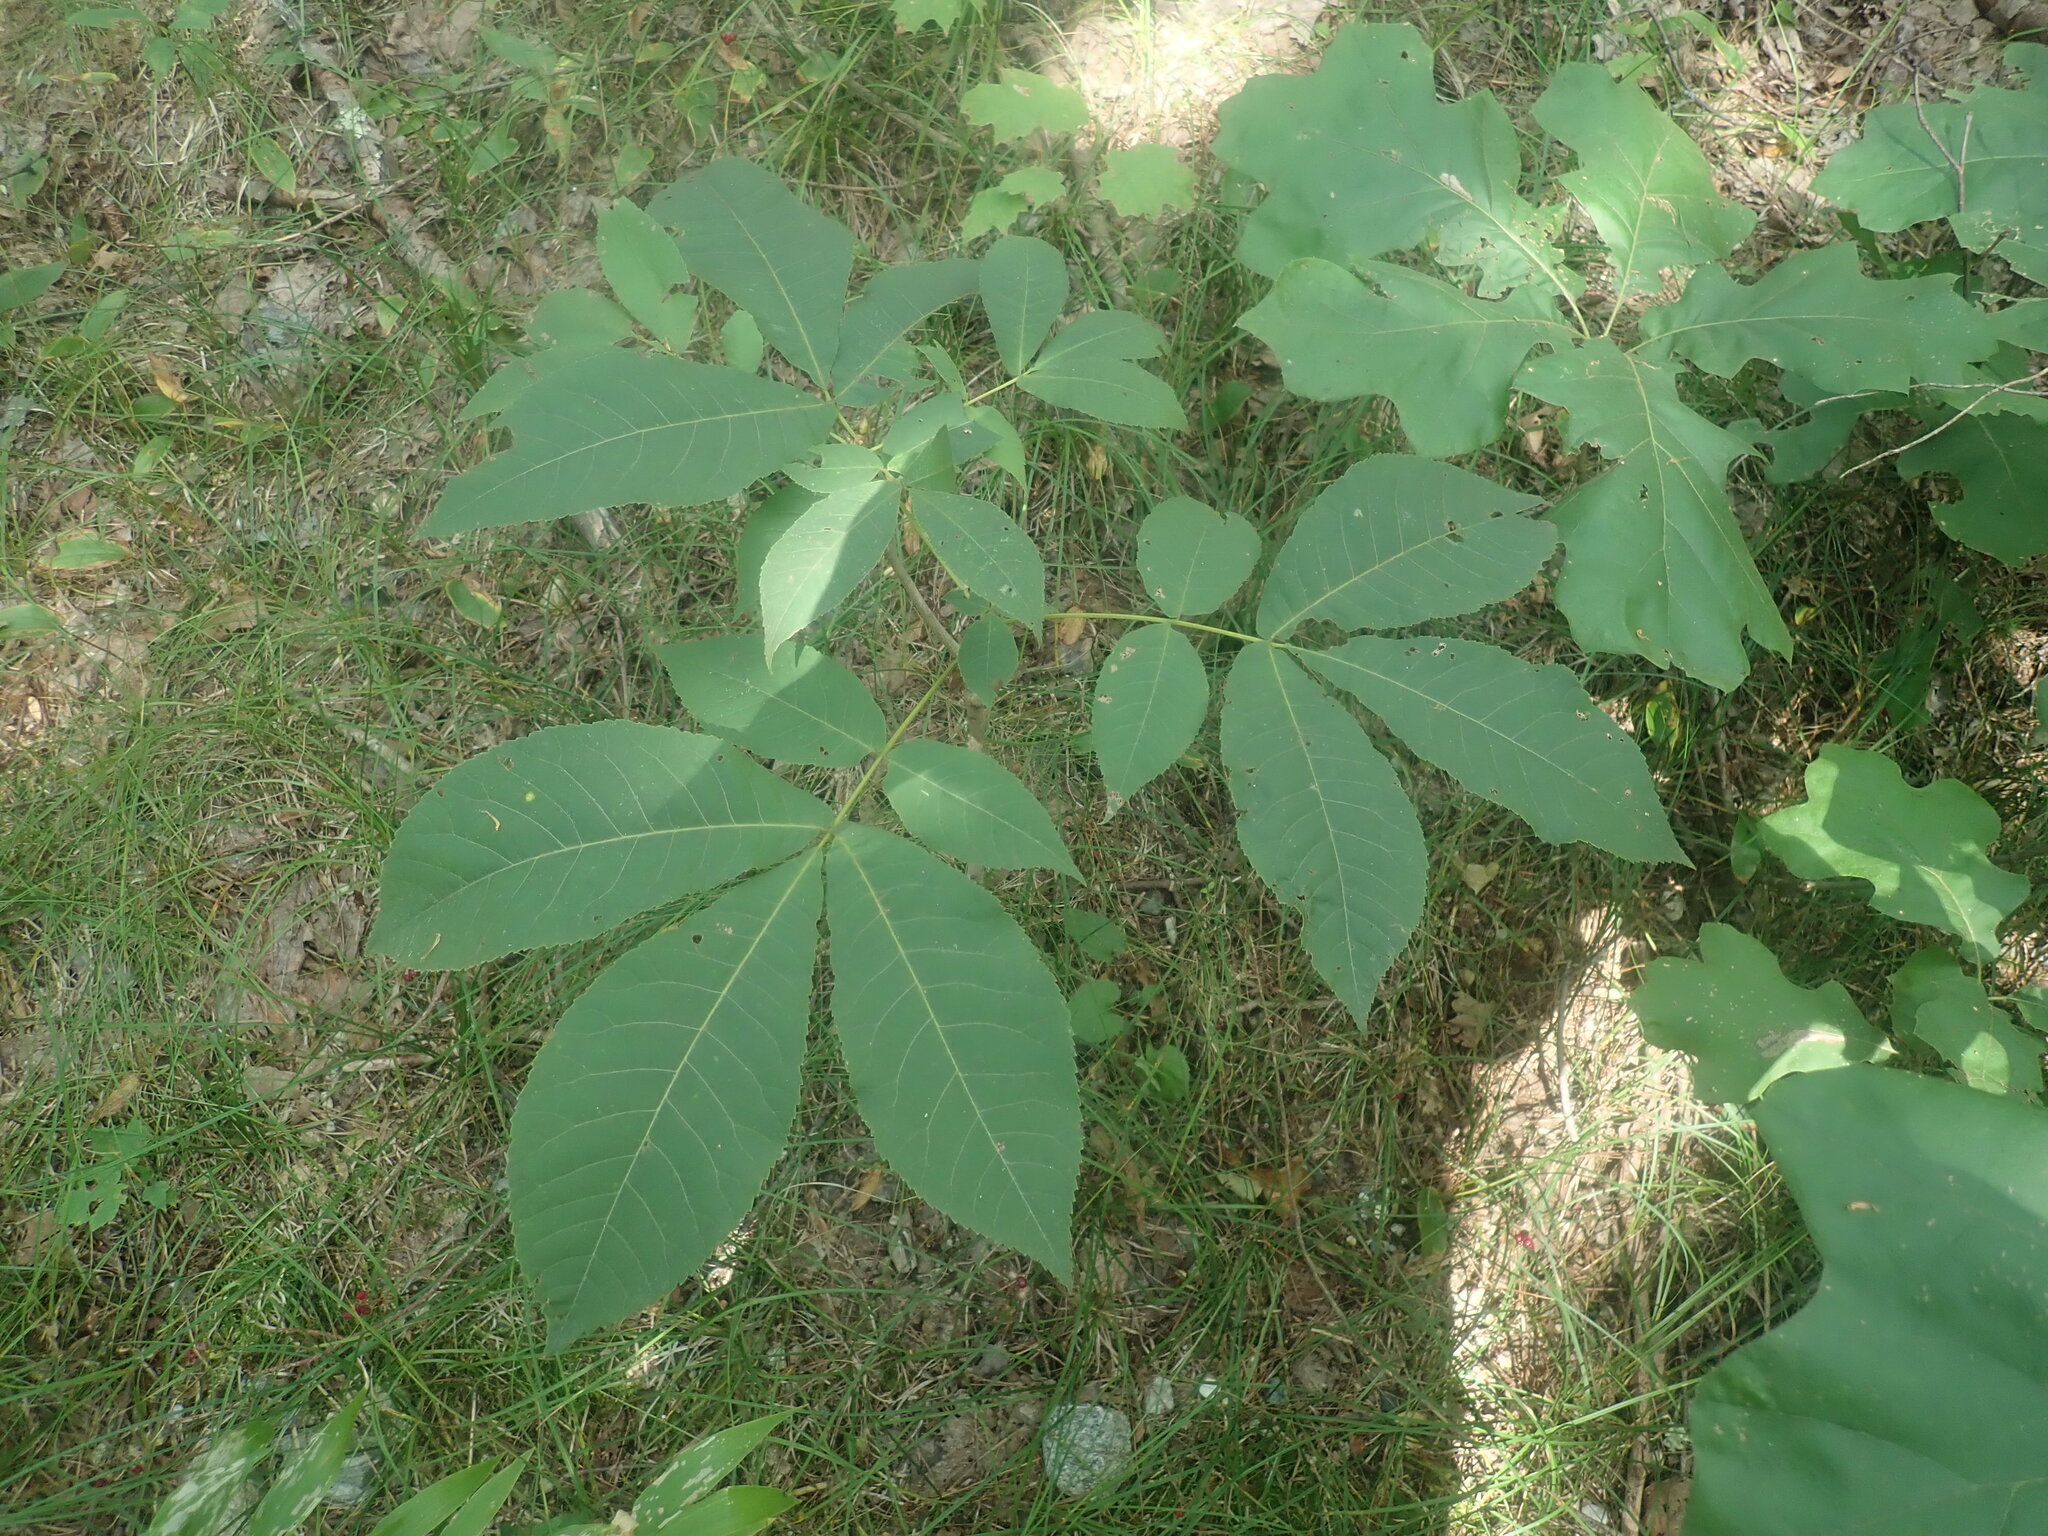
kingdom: Plantae
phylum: Tracheophyta
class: Magnoliopsida
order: Fagales
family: Juglandaceae
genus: Carya
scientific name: Carya
